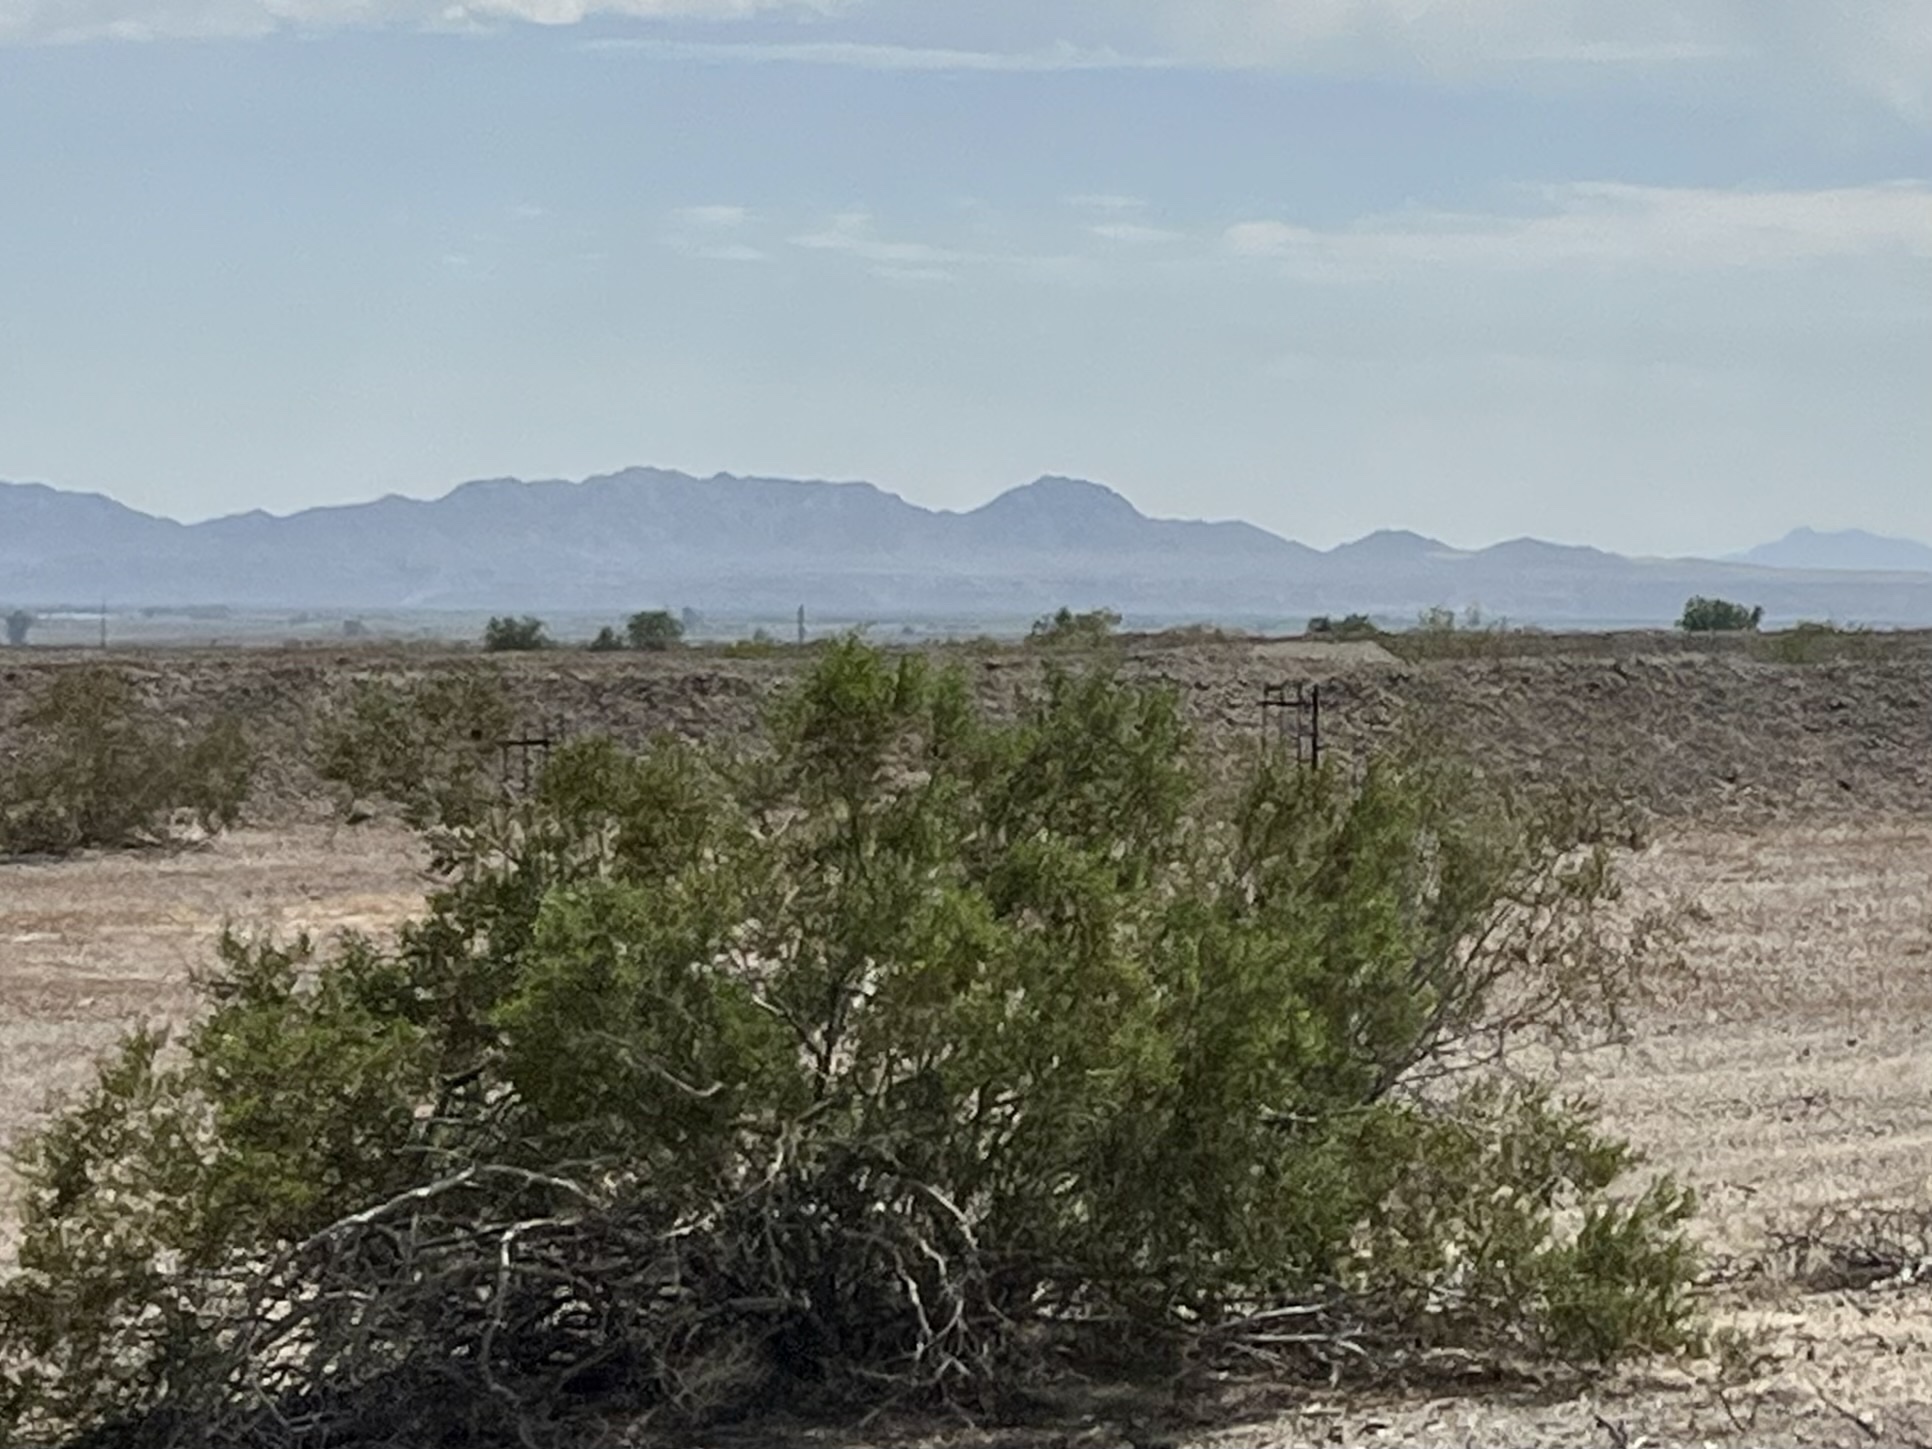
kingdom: Plantae
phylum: Tracheophyta
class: Magnoliopsida
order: Zygophyllales
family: Zygophyllaceae
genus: Larrea
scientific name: Larrea tridentata
